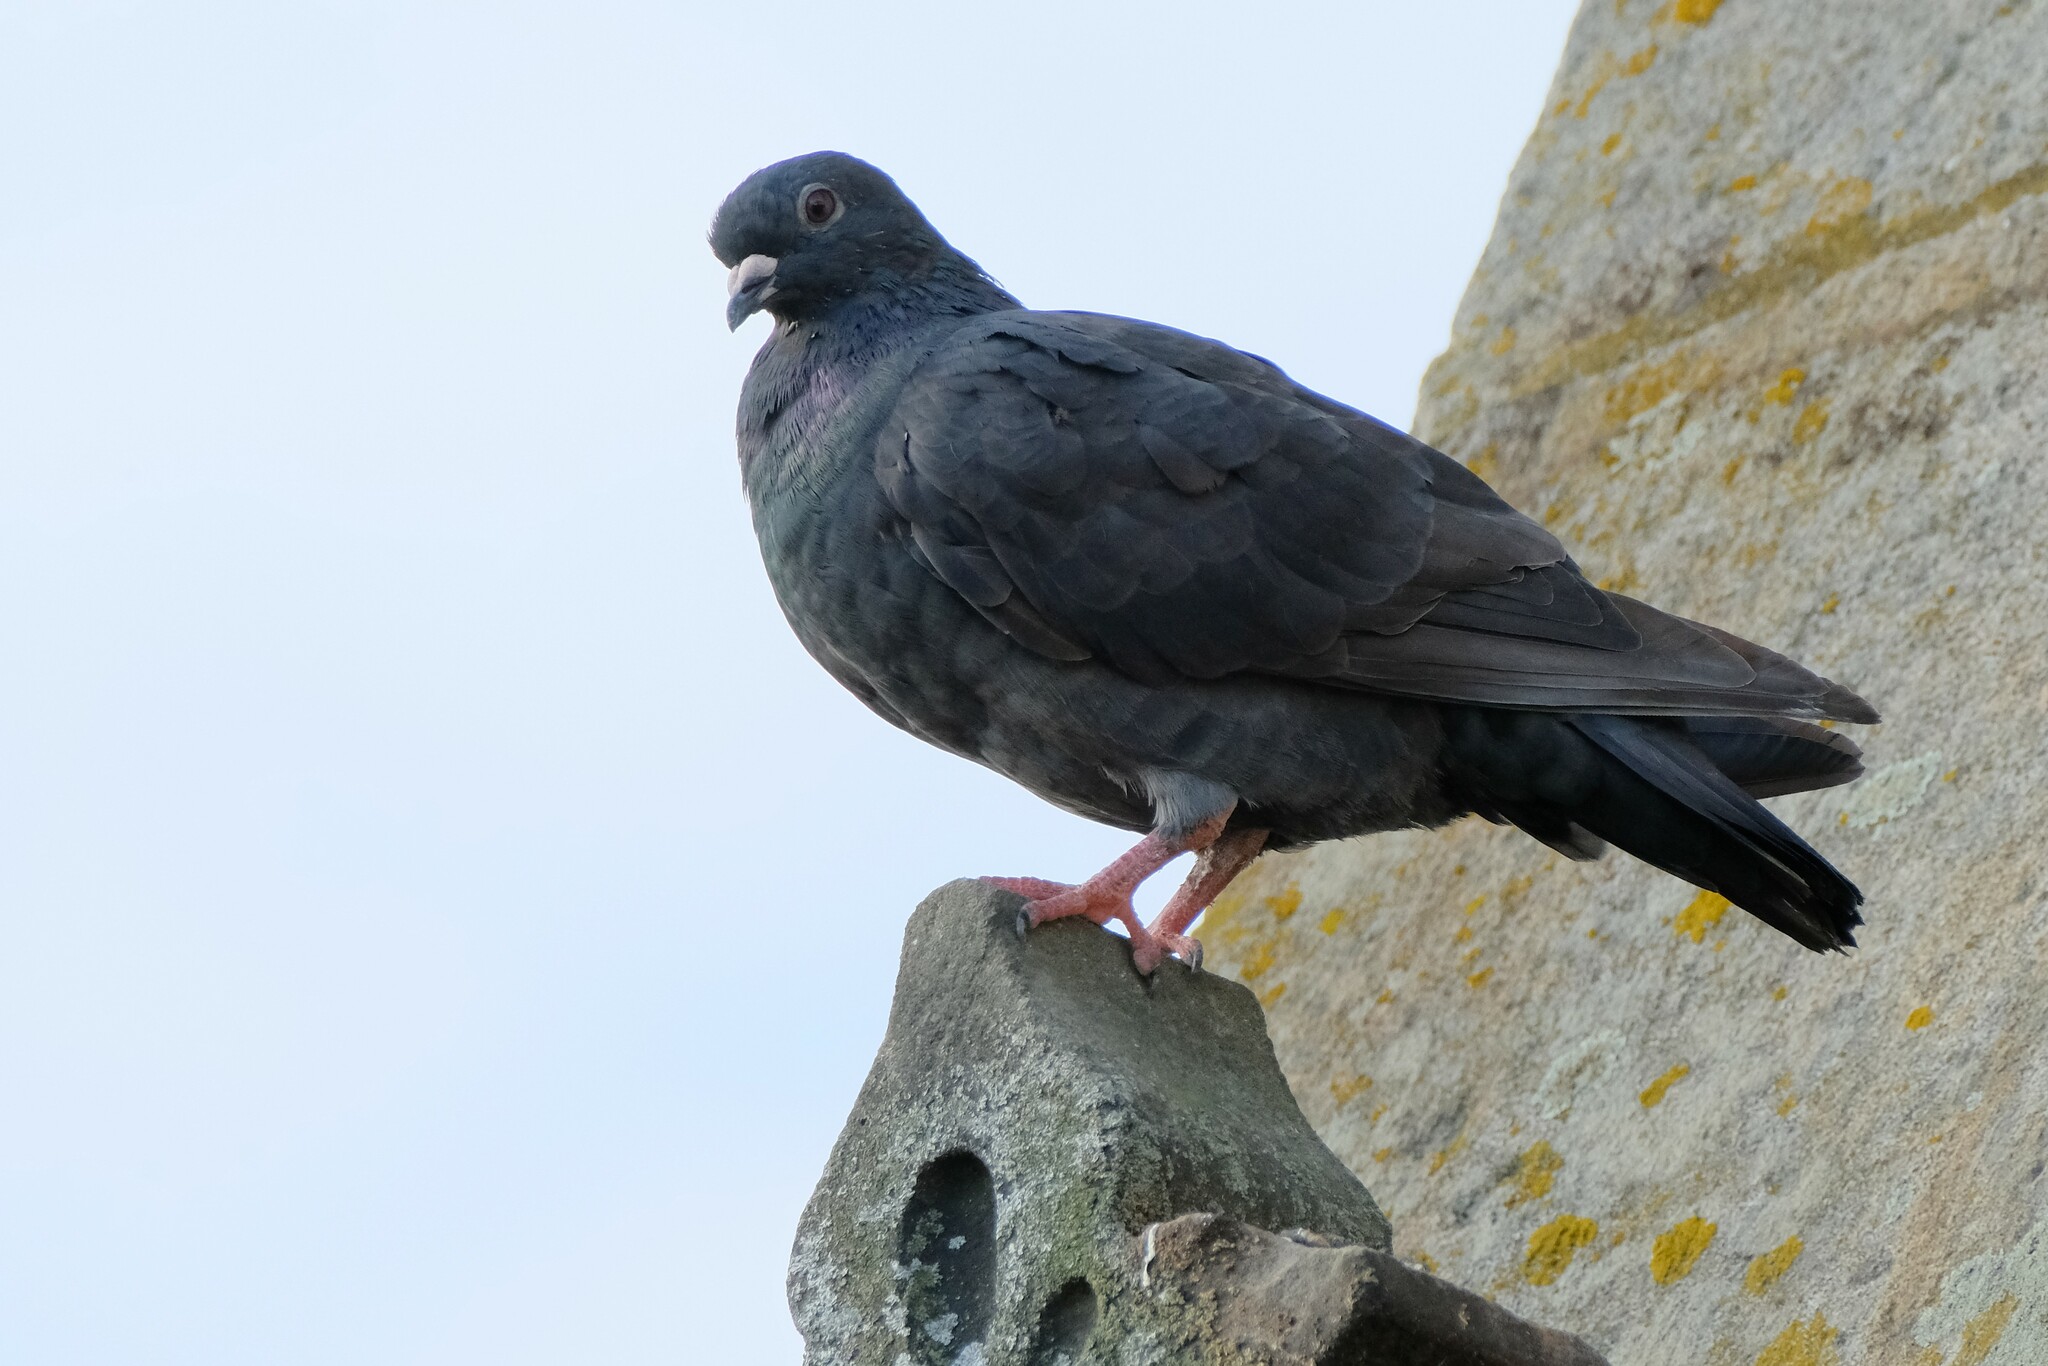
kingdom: Animalia
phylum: Chordata
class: Aves
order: Columbiformes
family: Columbidae
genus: Columba
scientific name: Columba livia
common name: Rock pigeon
